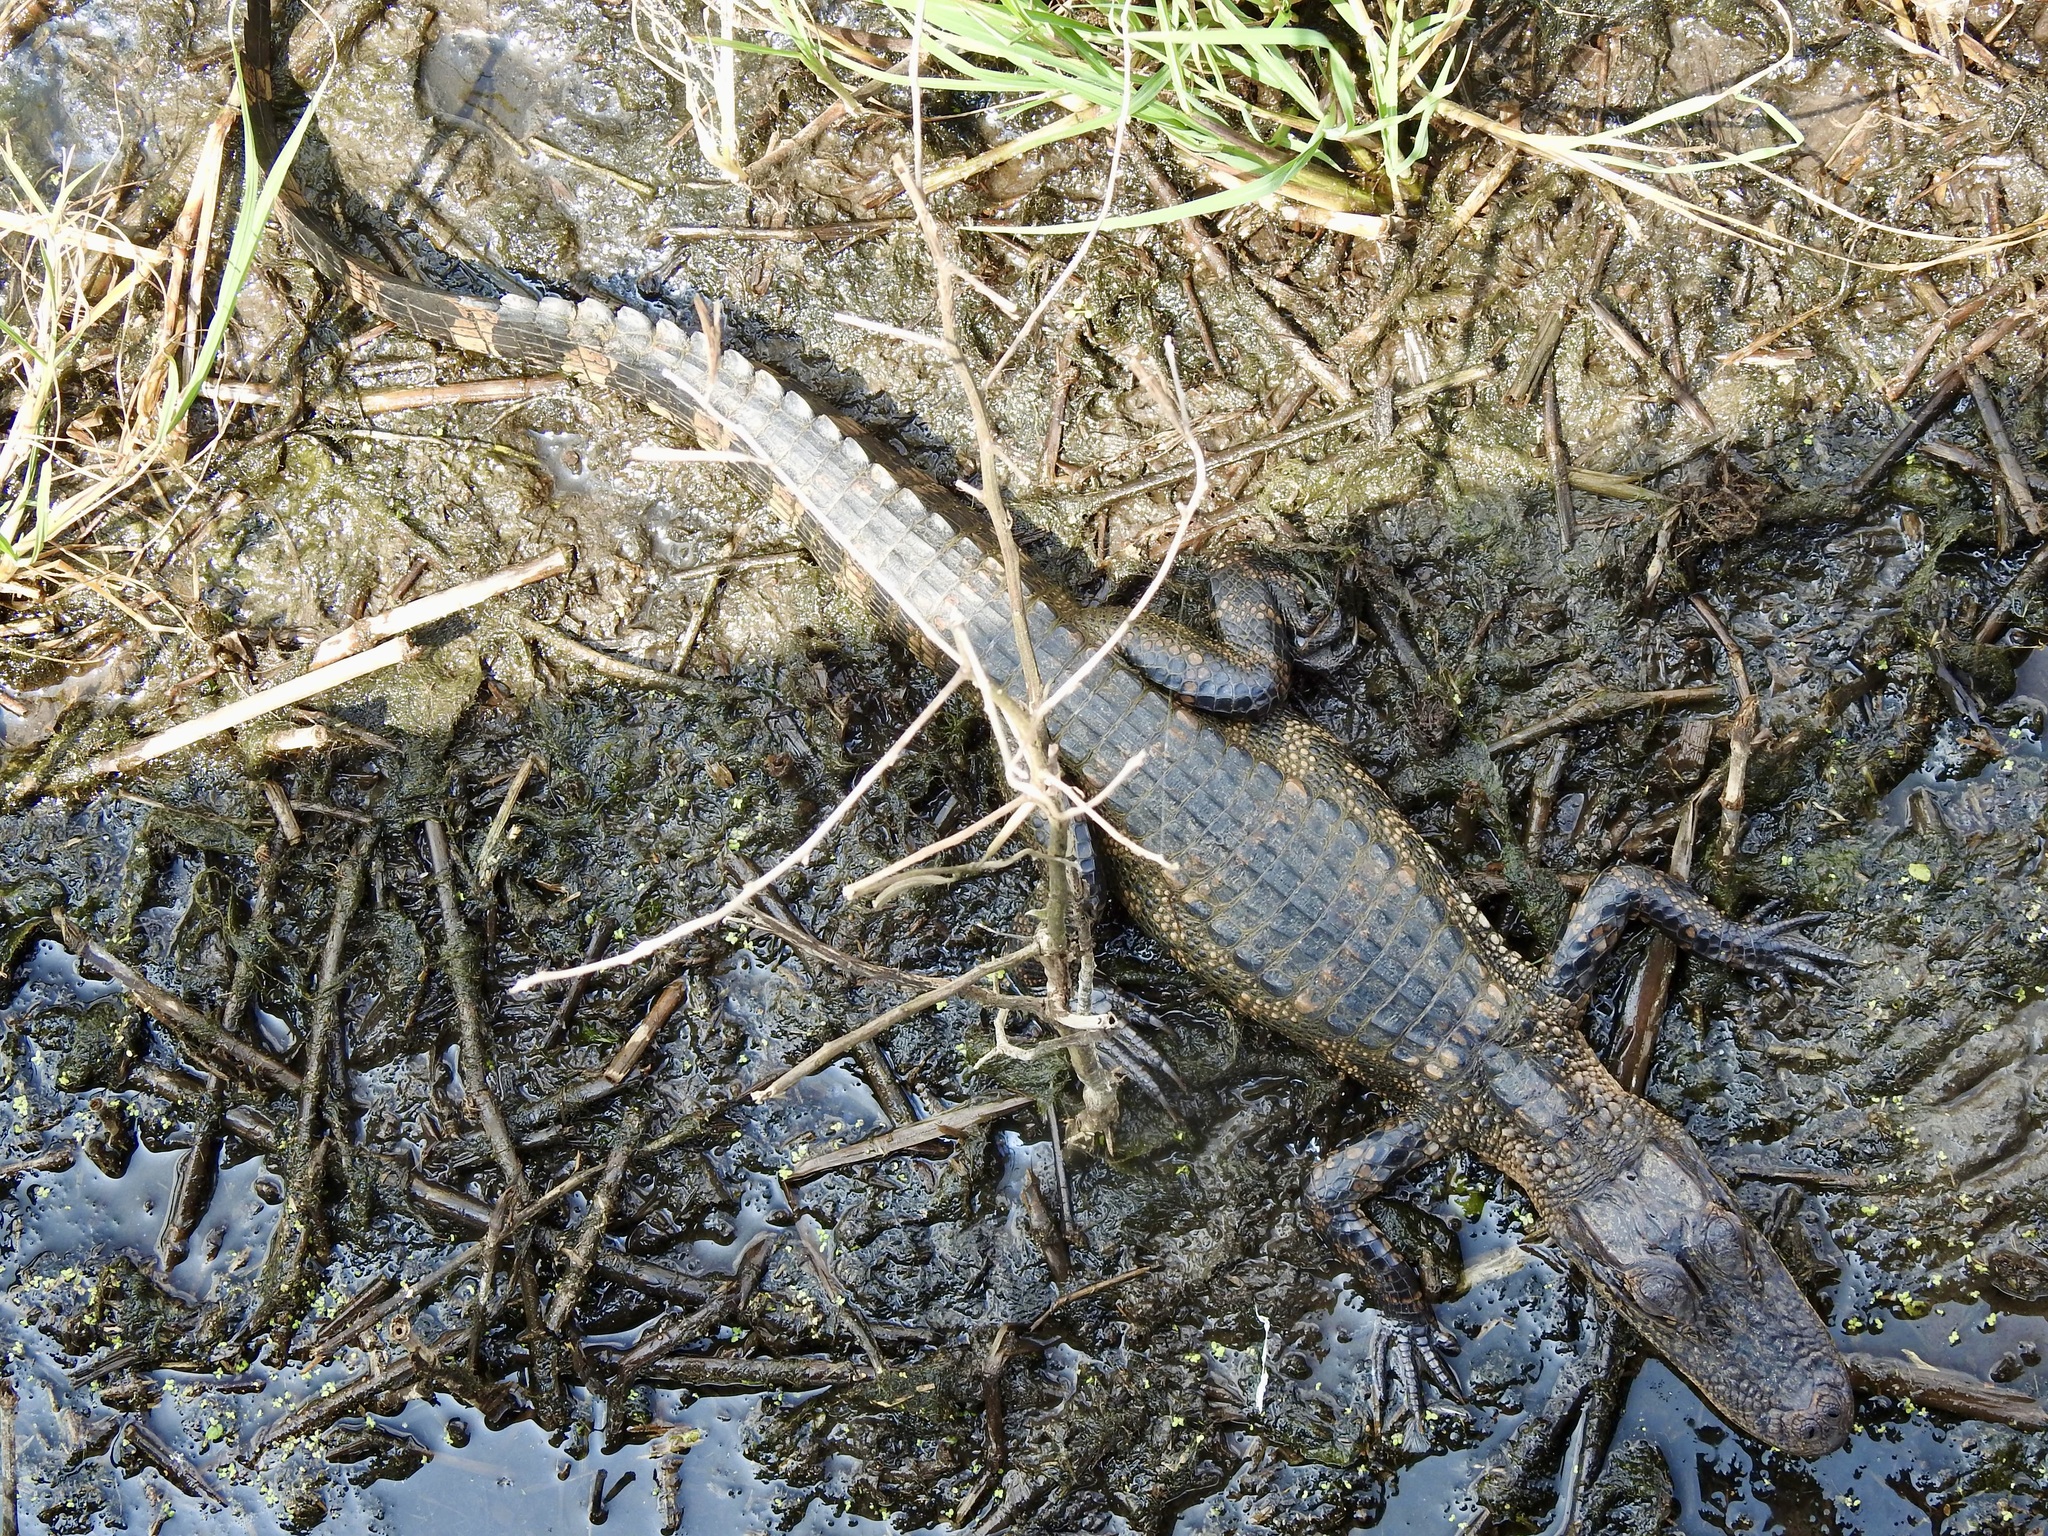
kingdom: Animalia
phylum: Chordata
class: Crocodylia
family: Alligatoridae
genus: Alligator
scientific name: Alligator mississippiensis
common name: American alligator
